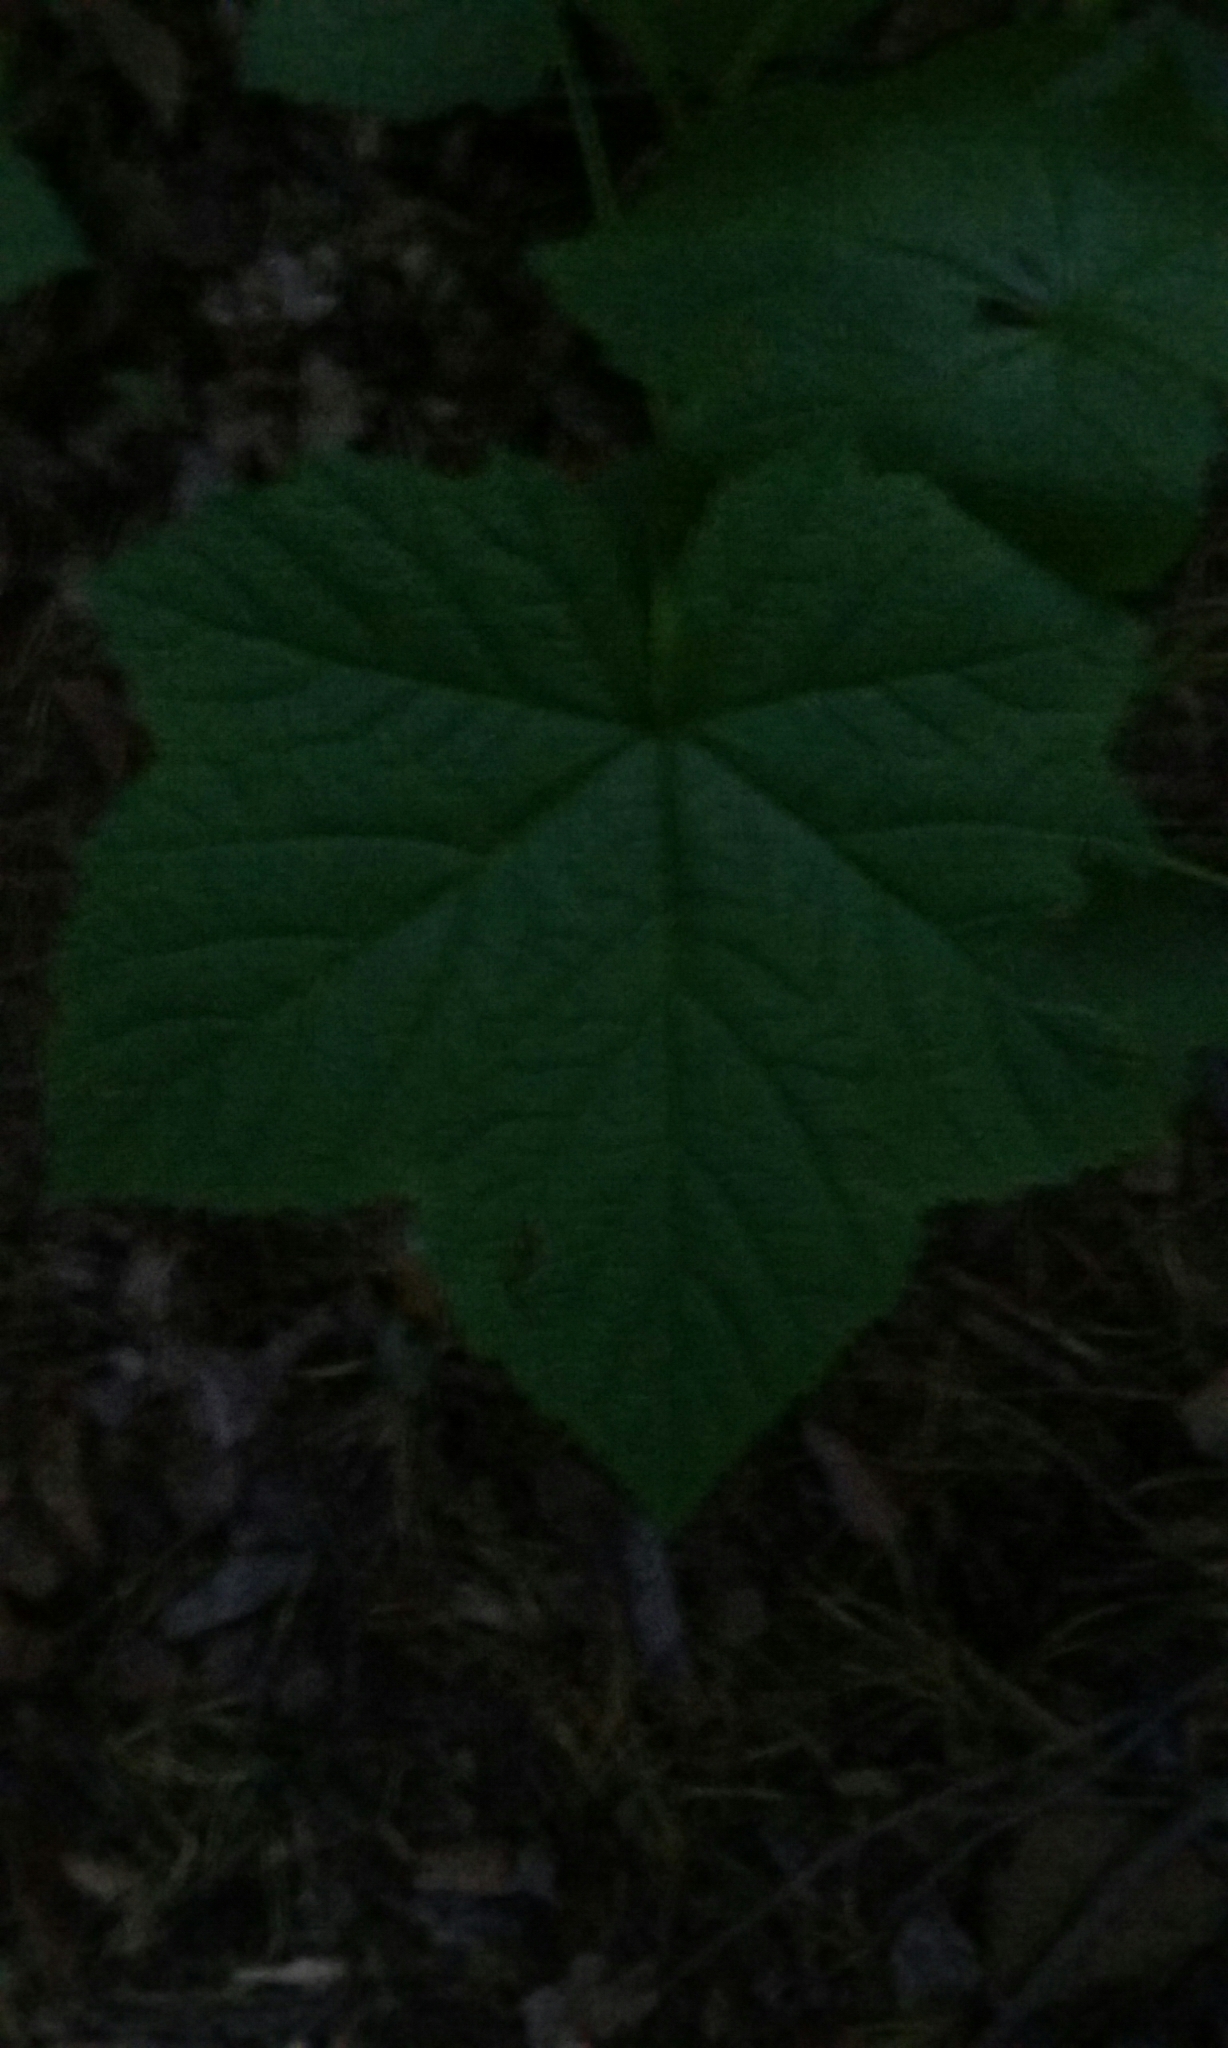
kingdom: Plantae
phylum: Tracheophyta
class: Magnoliopsida
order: Rosales
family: Rosaceae
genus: Rubus
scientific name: Rubus parviflorus
